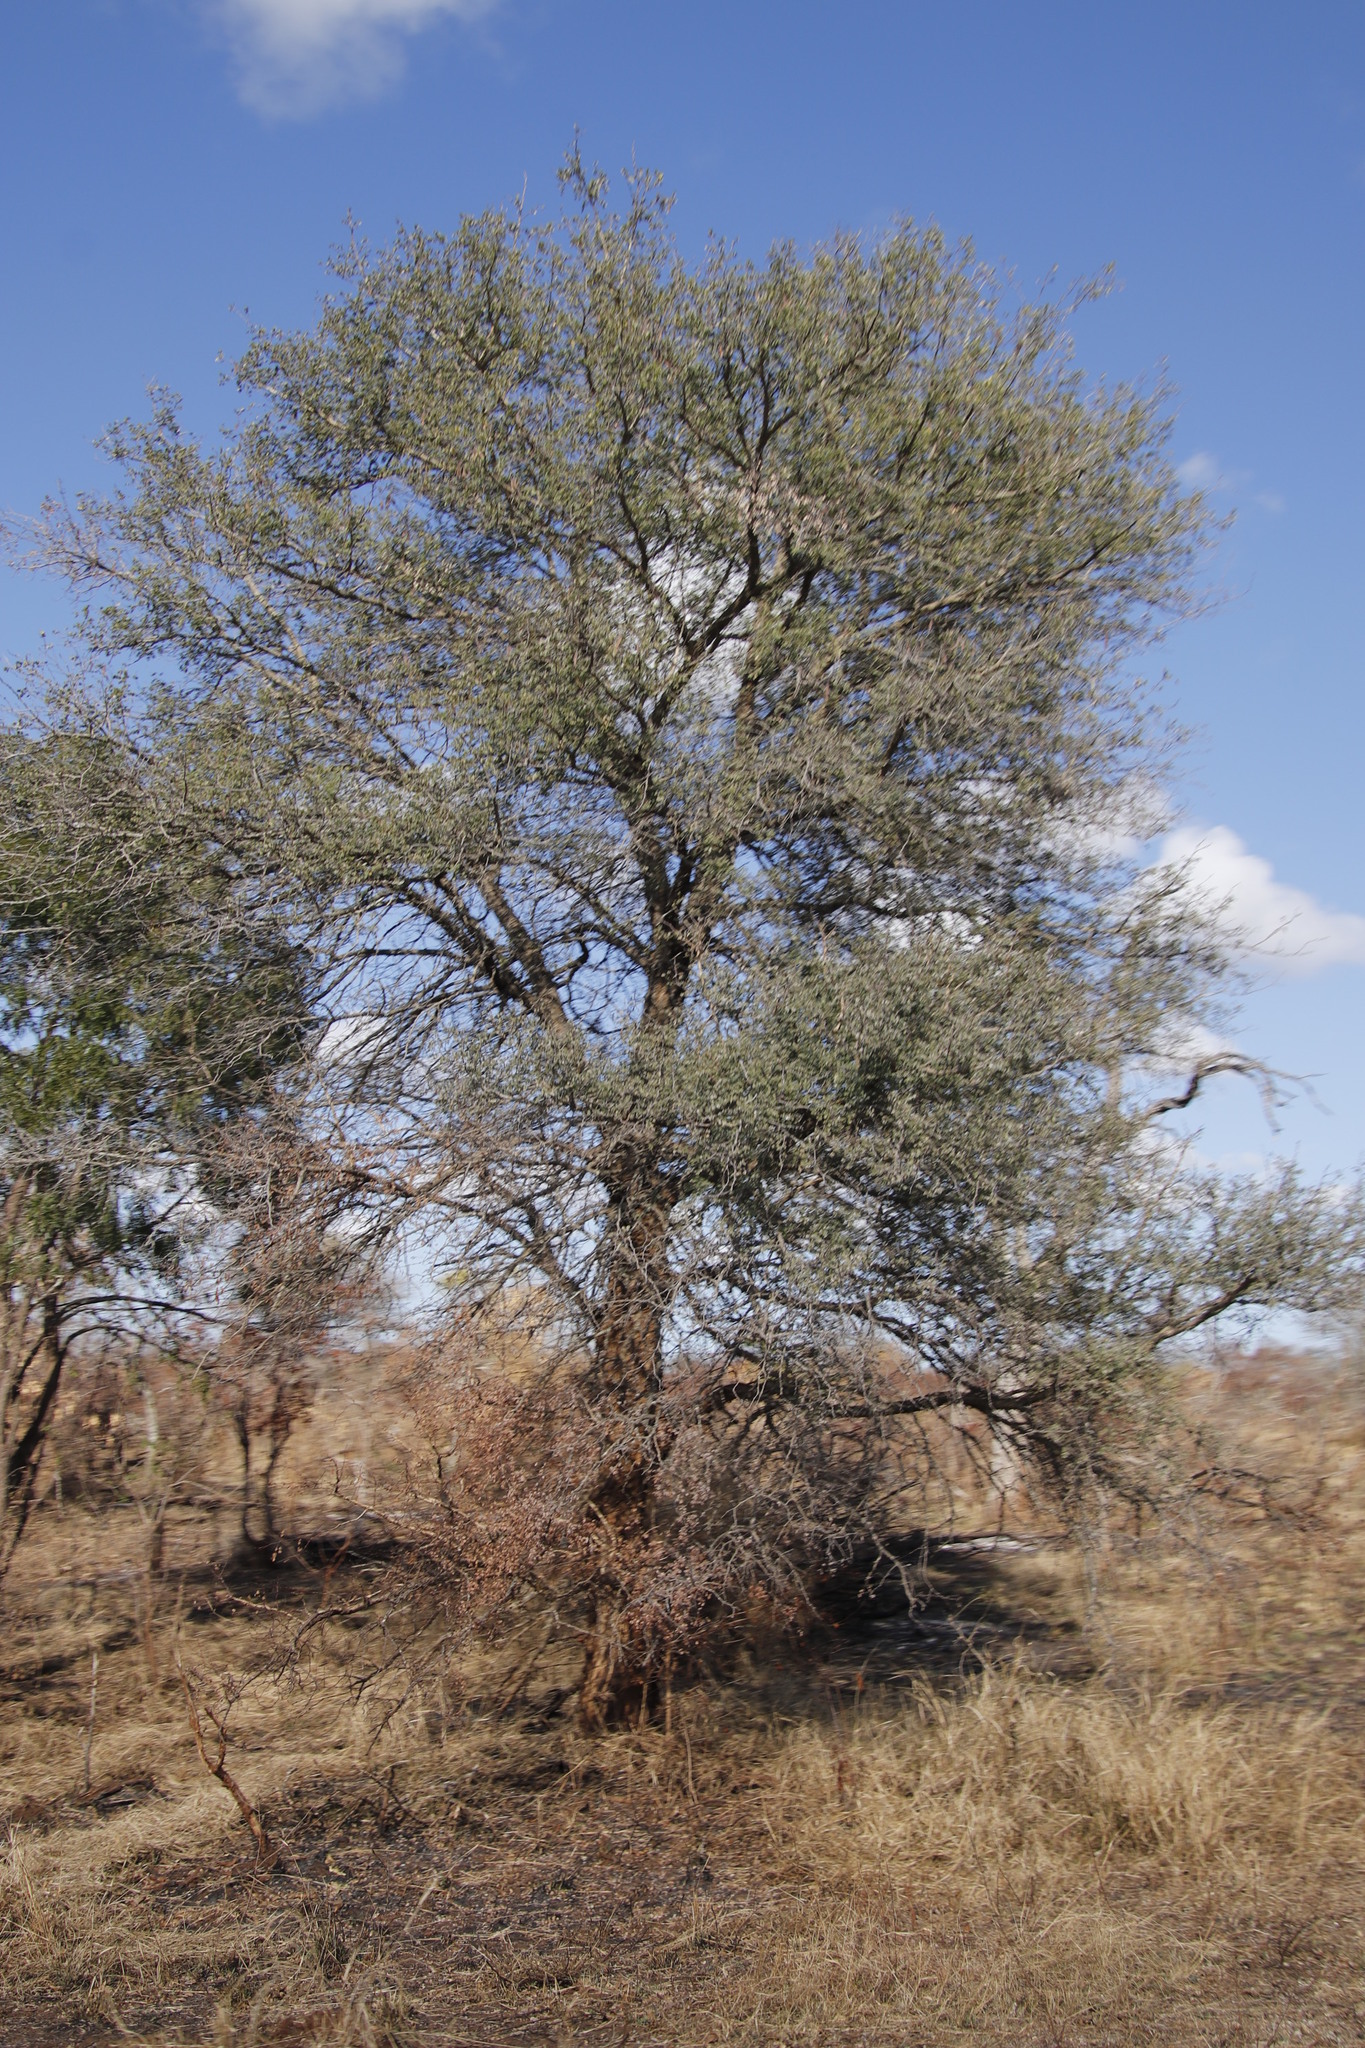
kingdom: Plantae
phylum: Tracheophyta
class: Magnoliopsida
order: Fabales
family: Fabaceae
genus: Senegalia
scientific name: Senegalia nigrescens
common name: Knobthorn
